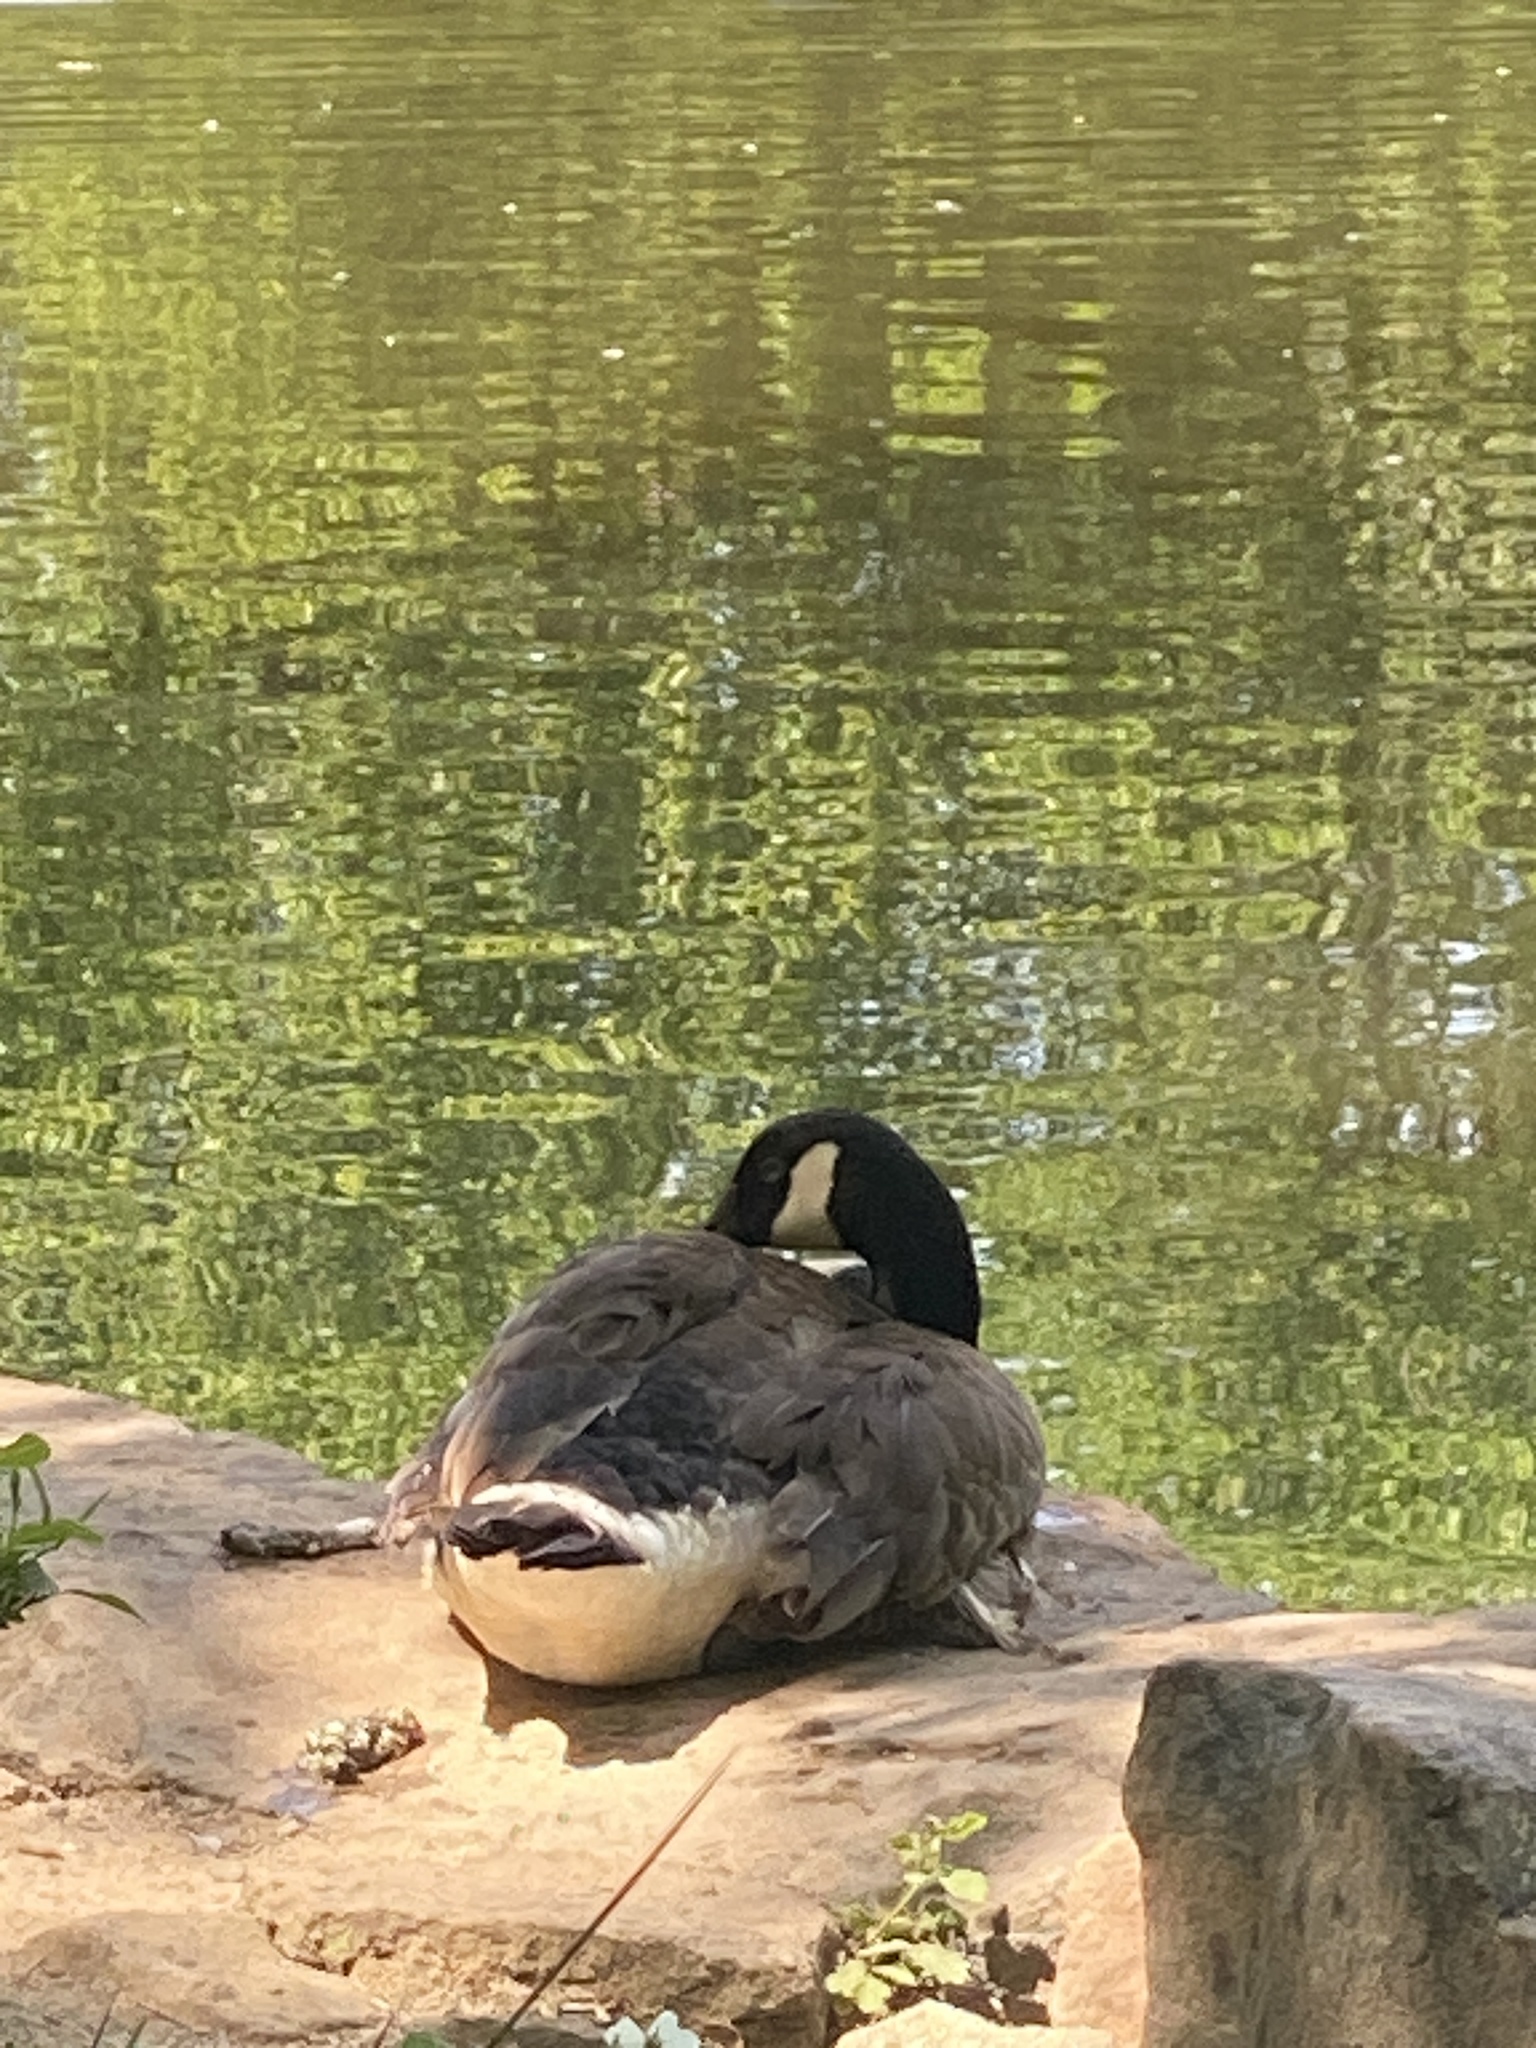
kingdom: Animalia
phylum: Chordata
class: Aves
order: Anseriformes
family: Anatidae
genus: Branta
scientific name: Branta canadensis
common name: Canada goose
